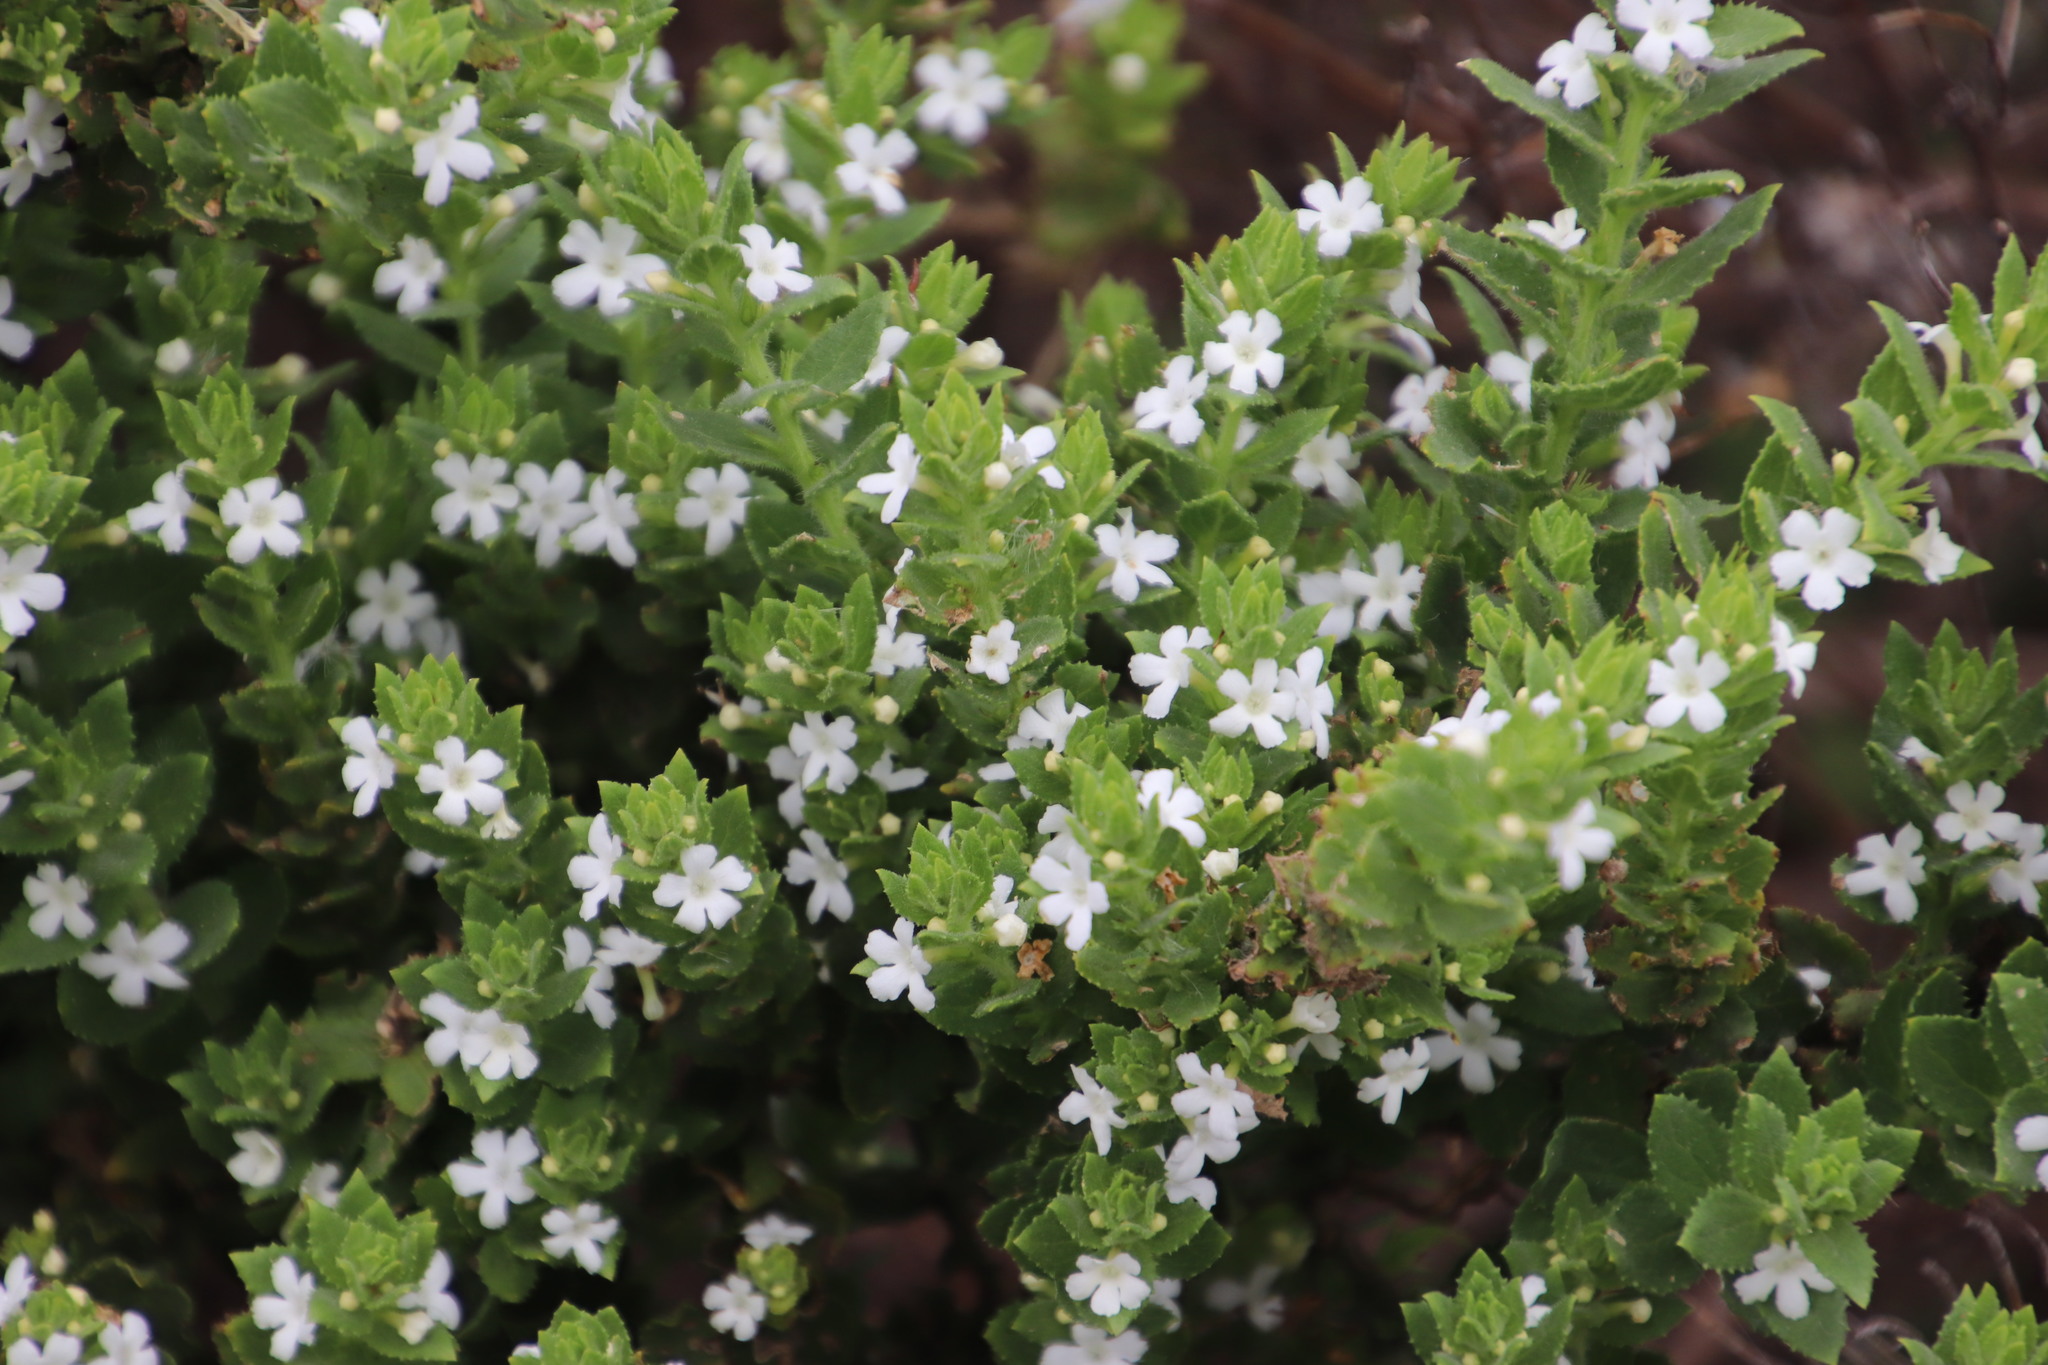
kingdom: Plantae
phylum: Tracheophyta
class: Magnoliopsida
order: Lamiales
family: Scrophulariaceae
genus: Oftia
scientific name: Oftia africana
